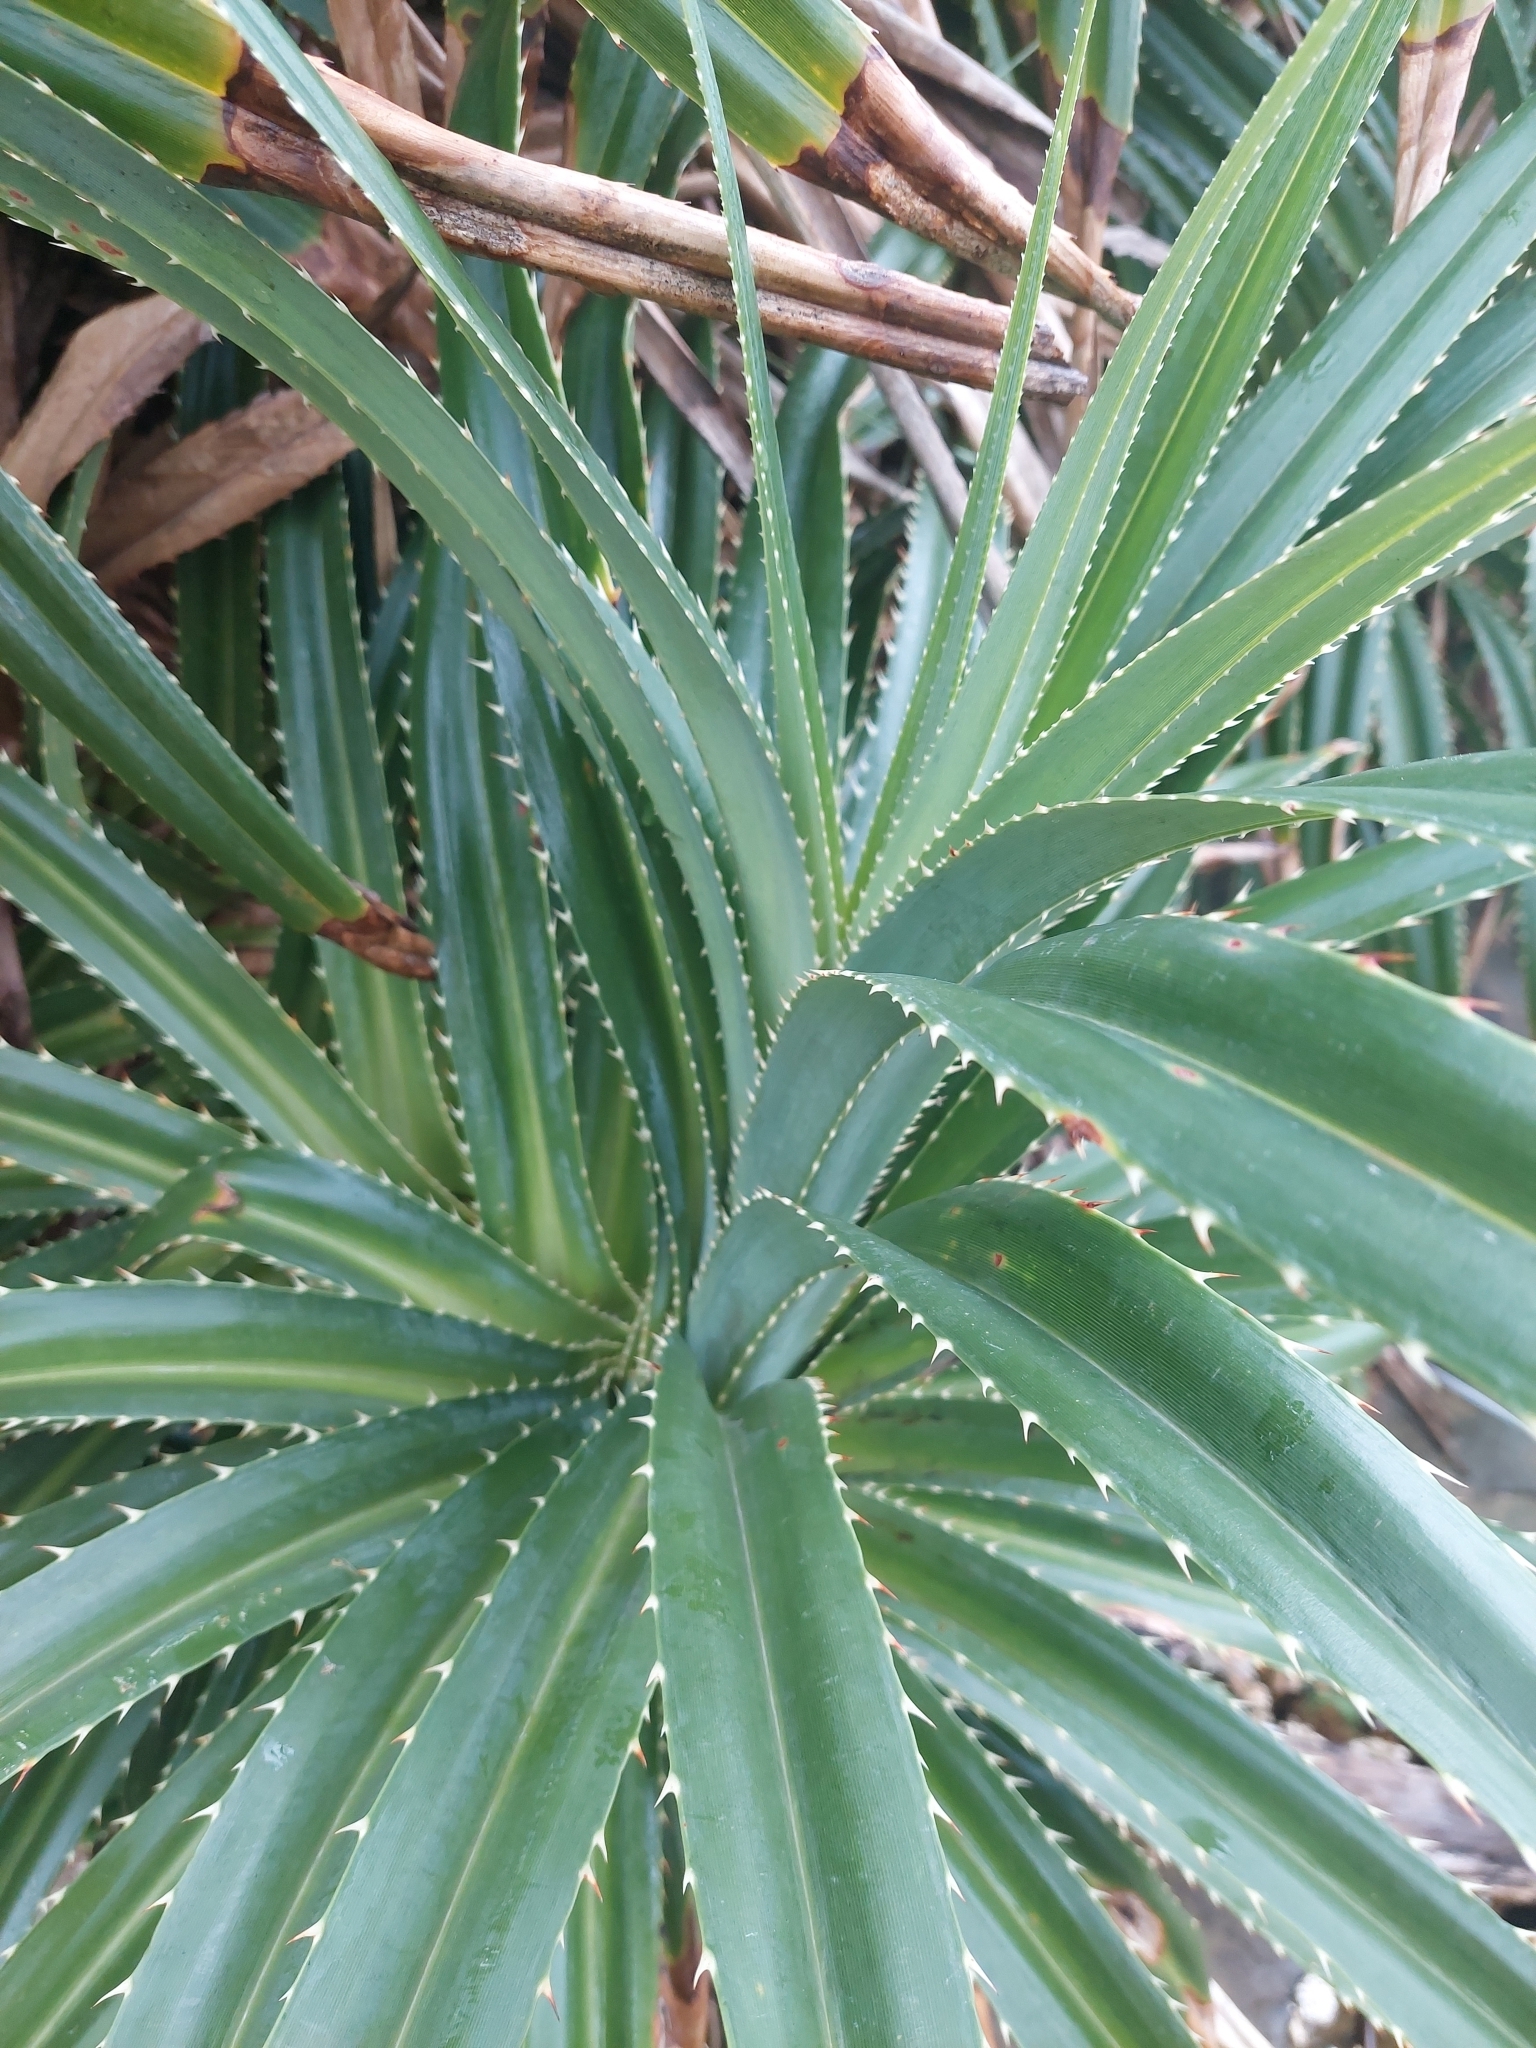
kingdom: Plantae
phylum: Tracheophyta
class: Liliopsida
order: Pandanales
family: Pandanaceae
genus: Pandanus
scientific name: Pandanus odorifer
